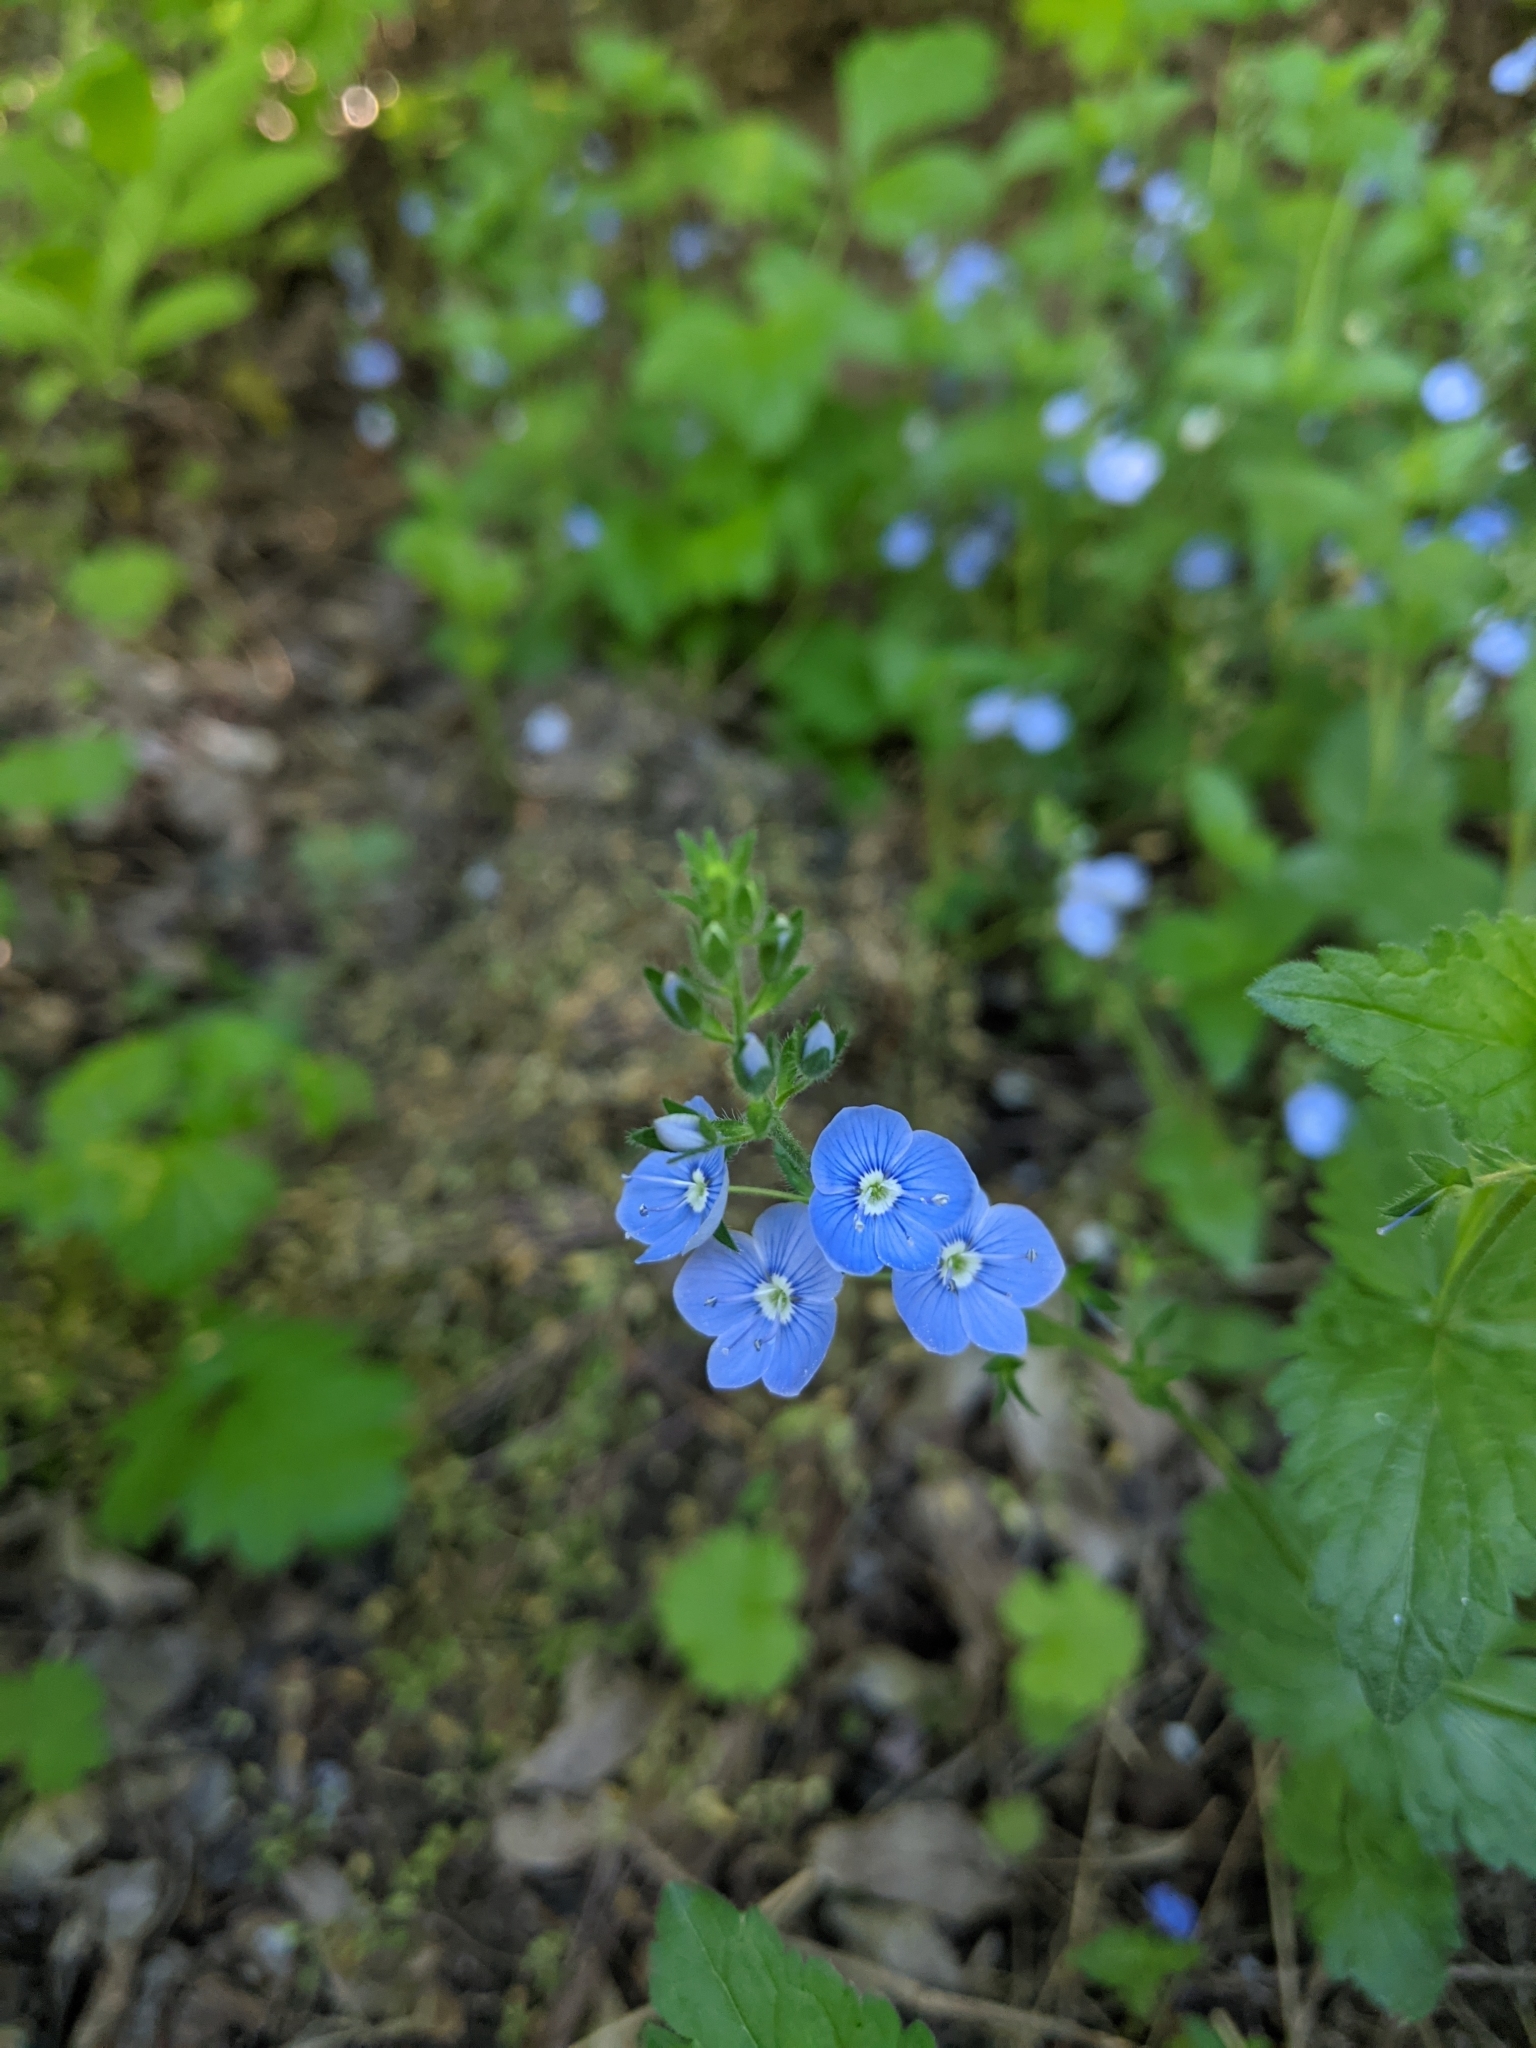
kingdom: Plantae
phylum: Tracheophyta
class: Magnoliopsida
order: Lamiales
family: Plantaginaceae
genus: Veronica
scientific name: Veronica chamaedrys
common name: Germander speedwell
